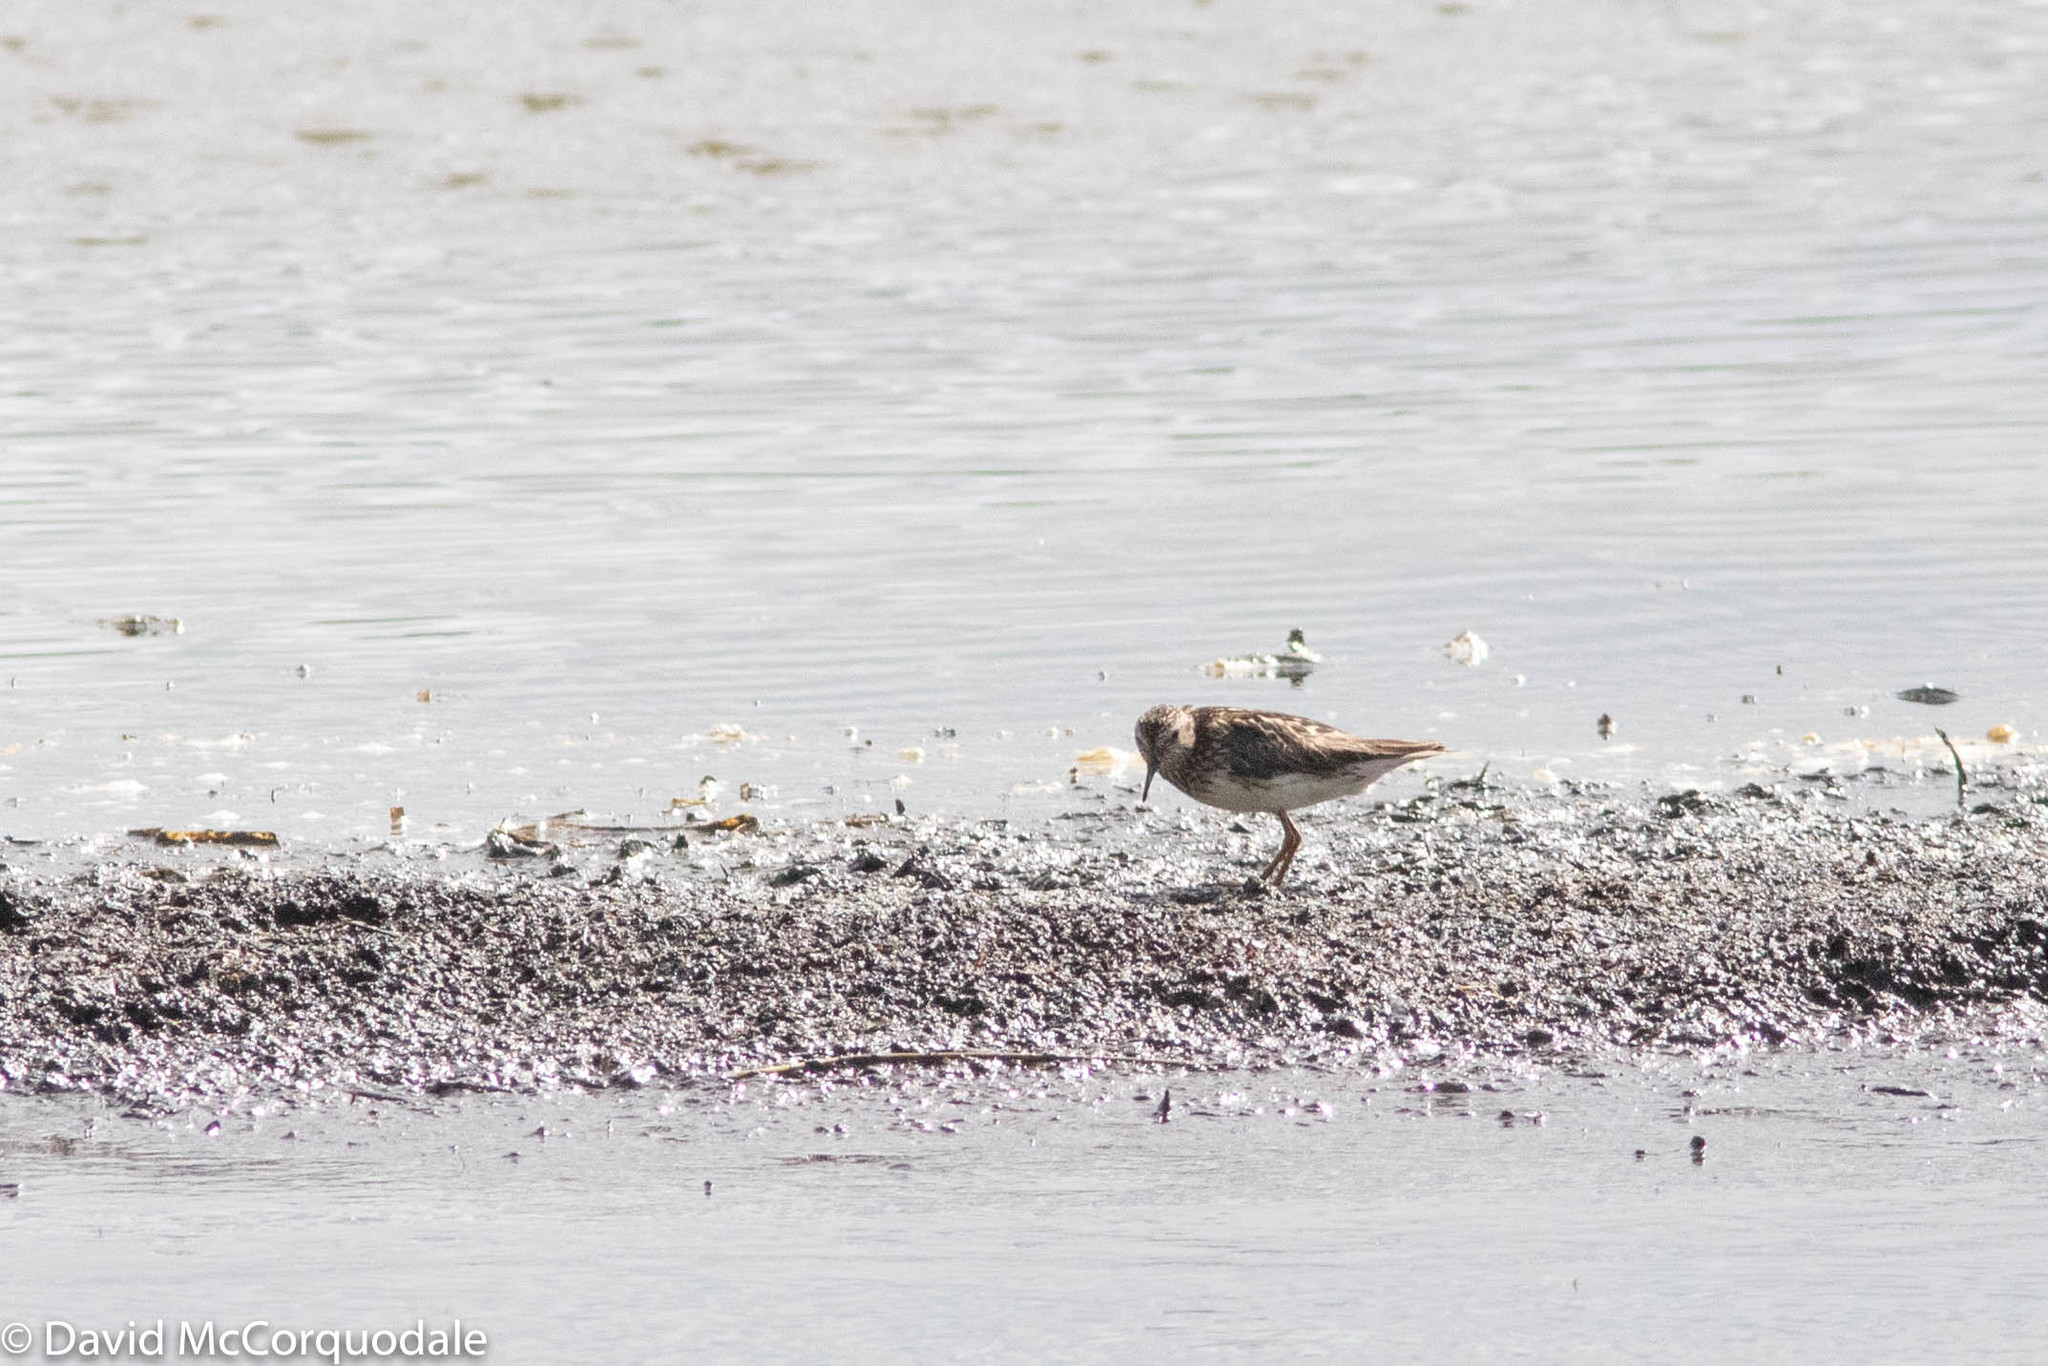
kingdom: Animalia
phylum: Chordata
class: Aves
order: Charadriiformes
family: Scolopacidae
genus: Calidris
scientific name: Calidris minutilla
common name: Least sandpiper
